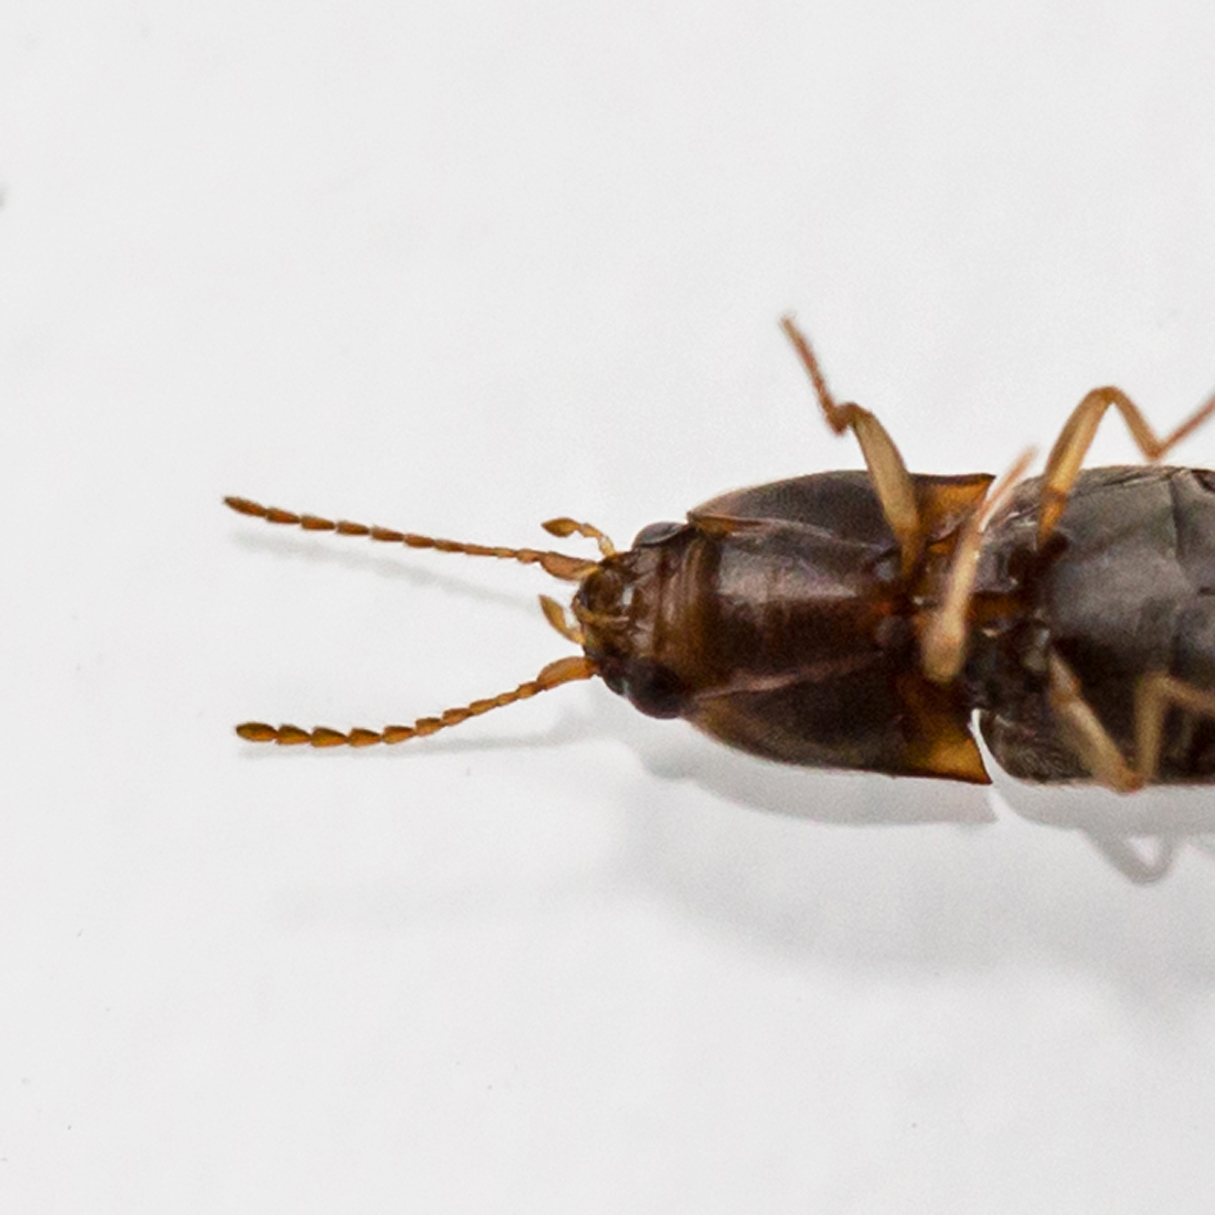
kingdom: Animalia
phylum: Arthropoda
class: Insecta
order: Coleoptera
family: Elateridae
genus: Monocrepidius
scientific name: Monocrepidius bellus
